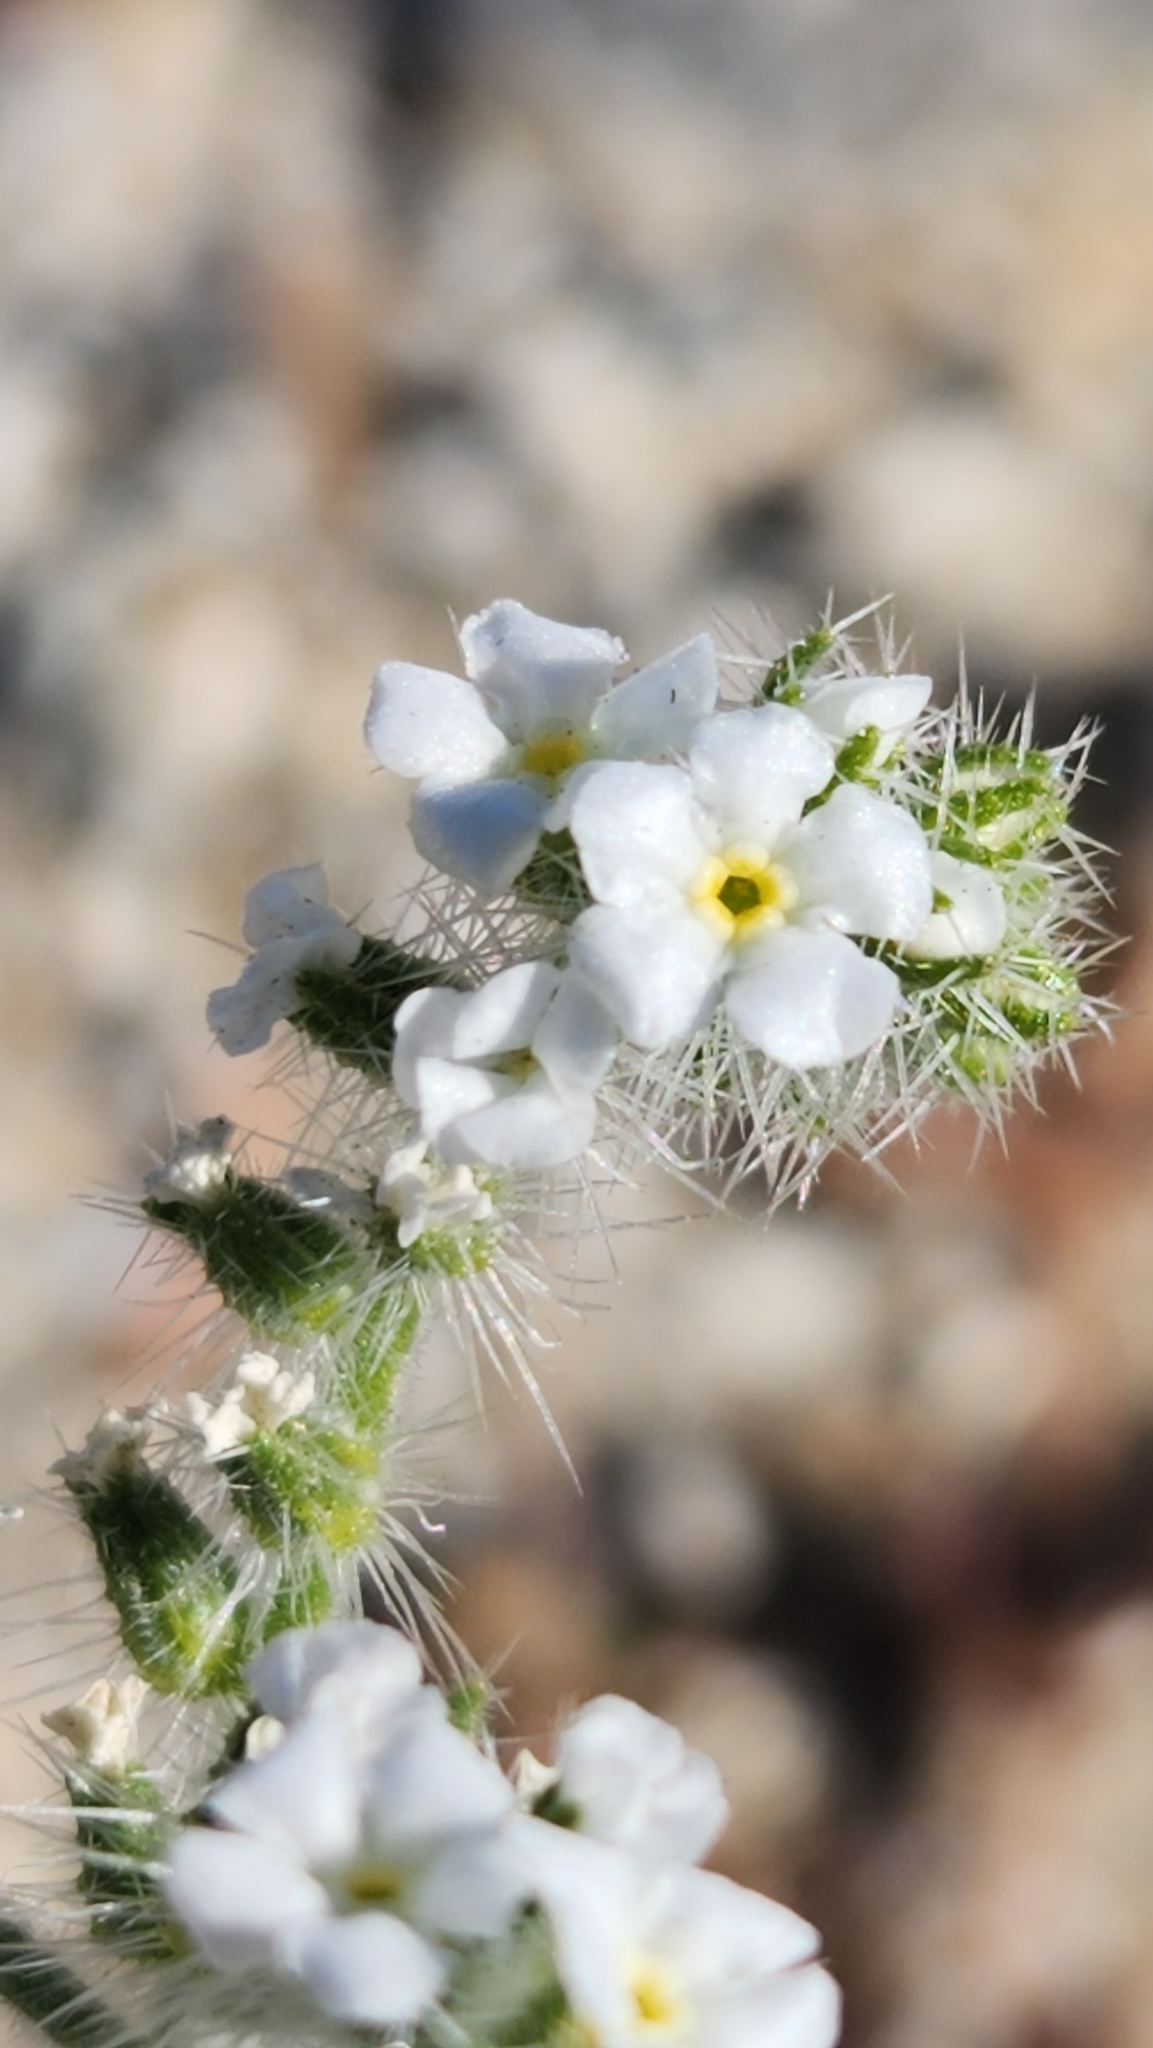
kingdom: Plantae
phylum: Tracheophyta
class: Magnoliopsida
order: Boraginales
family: Boraginaceae
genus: Johnstonella
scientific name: Johnstonella angustifolia
